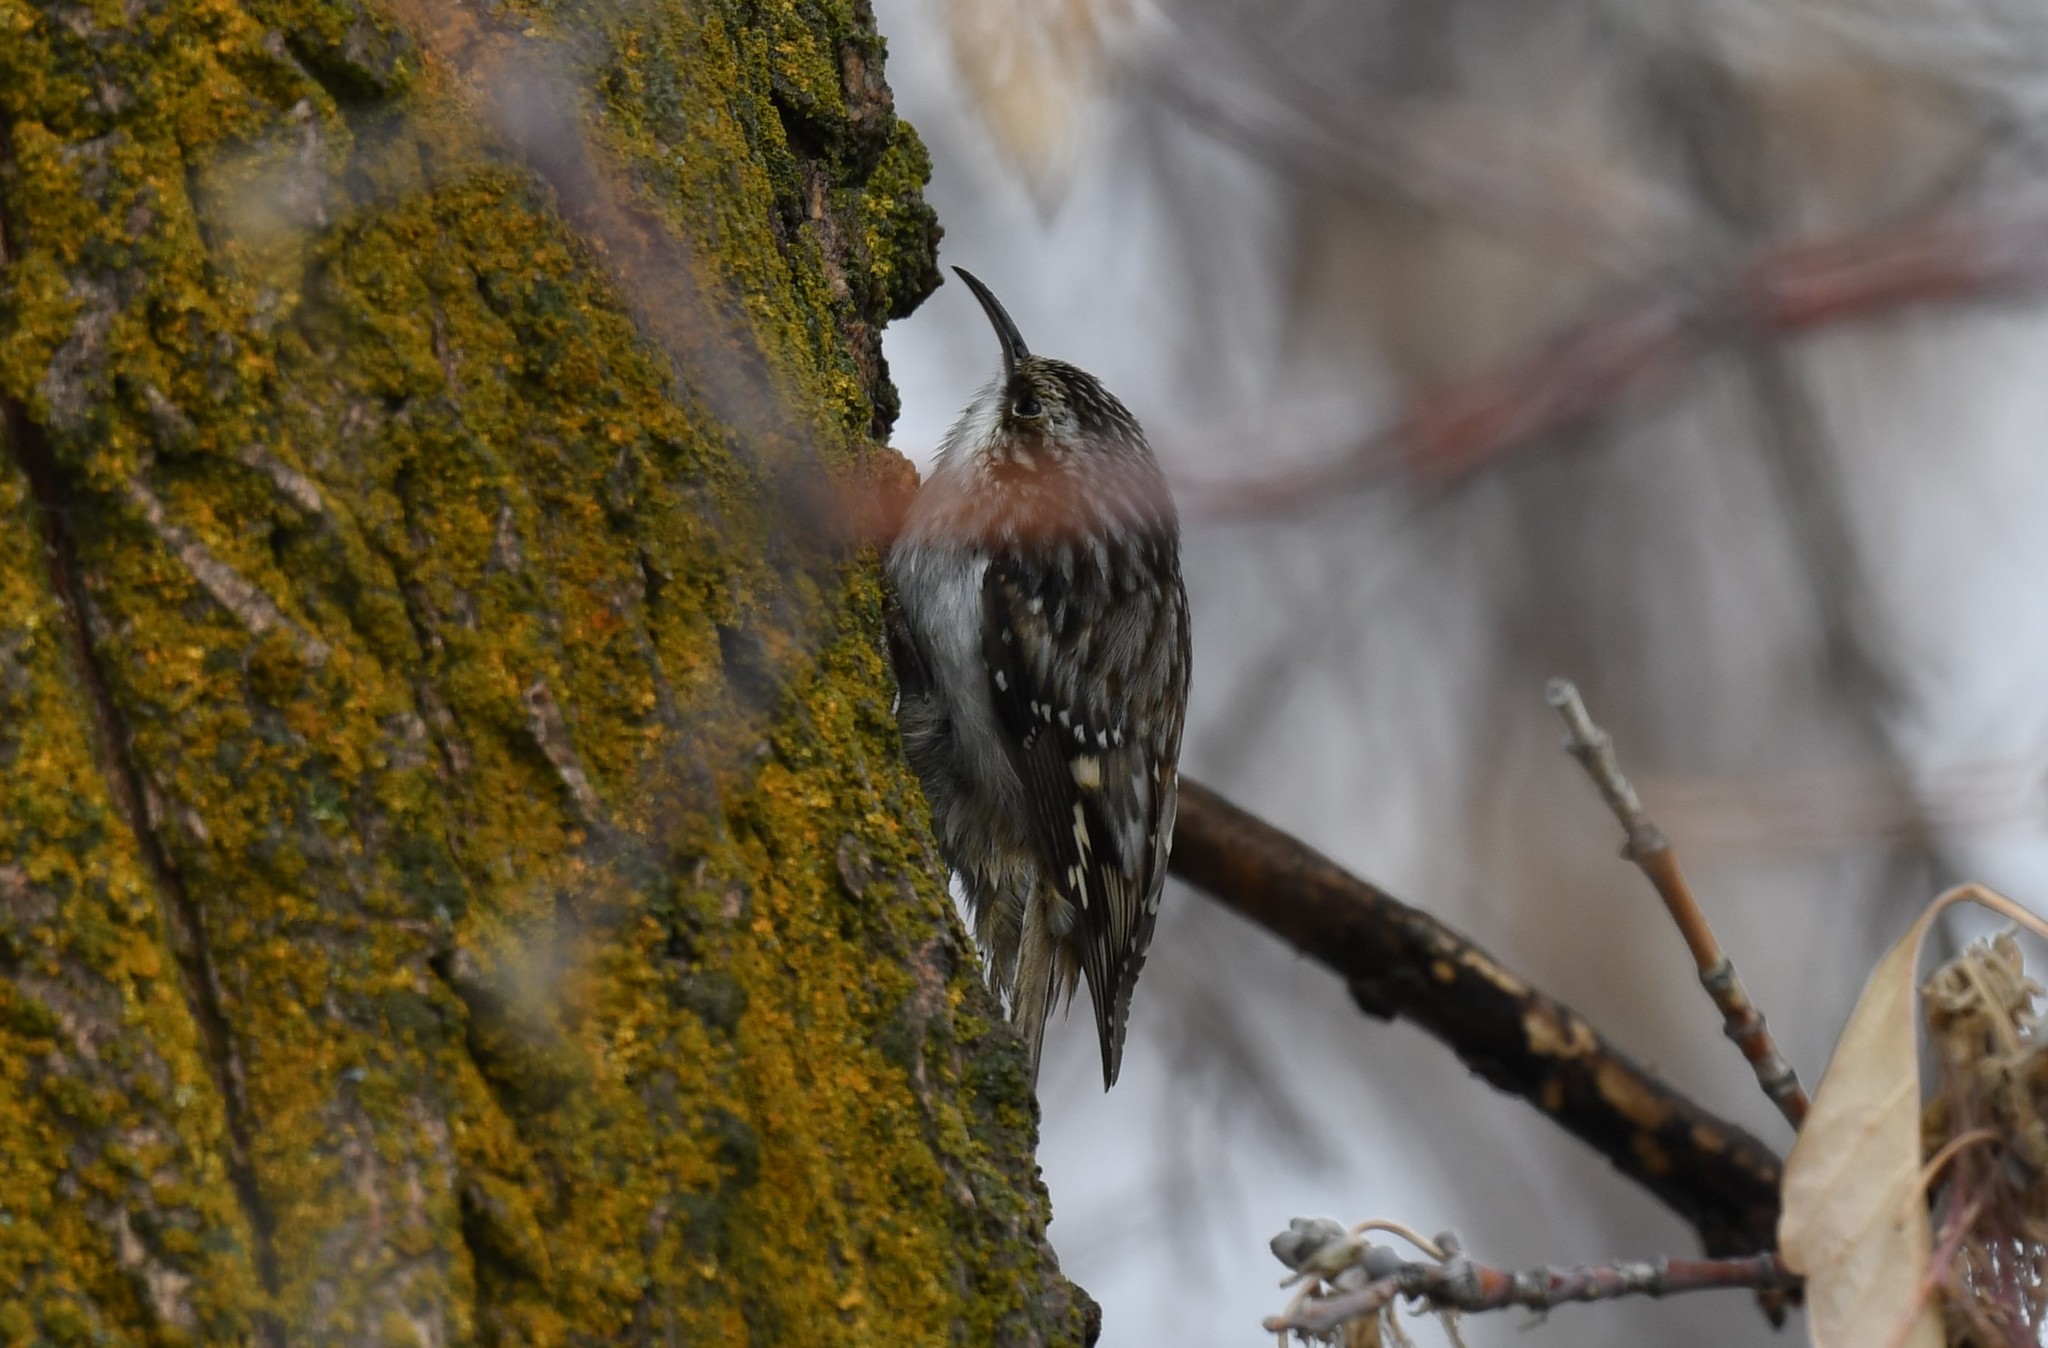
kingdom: Animalia
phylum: Chordata
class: Aves
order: Passeriformes
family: Certhiidae
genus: Certhia
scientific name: Certhia americana
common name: Brown creeper
